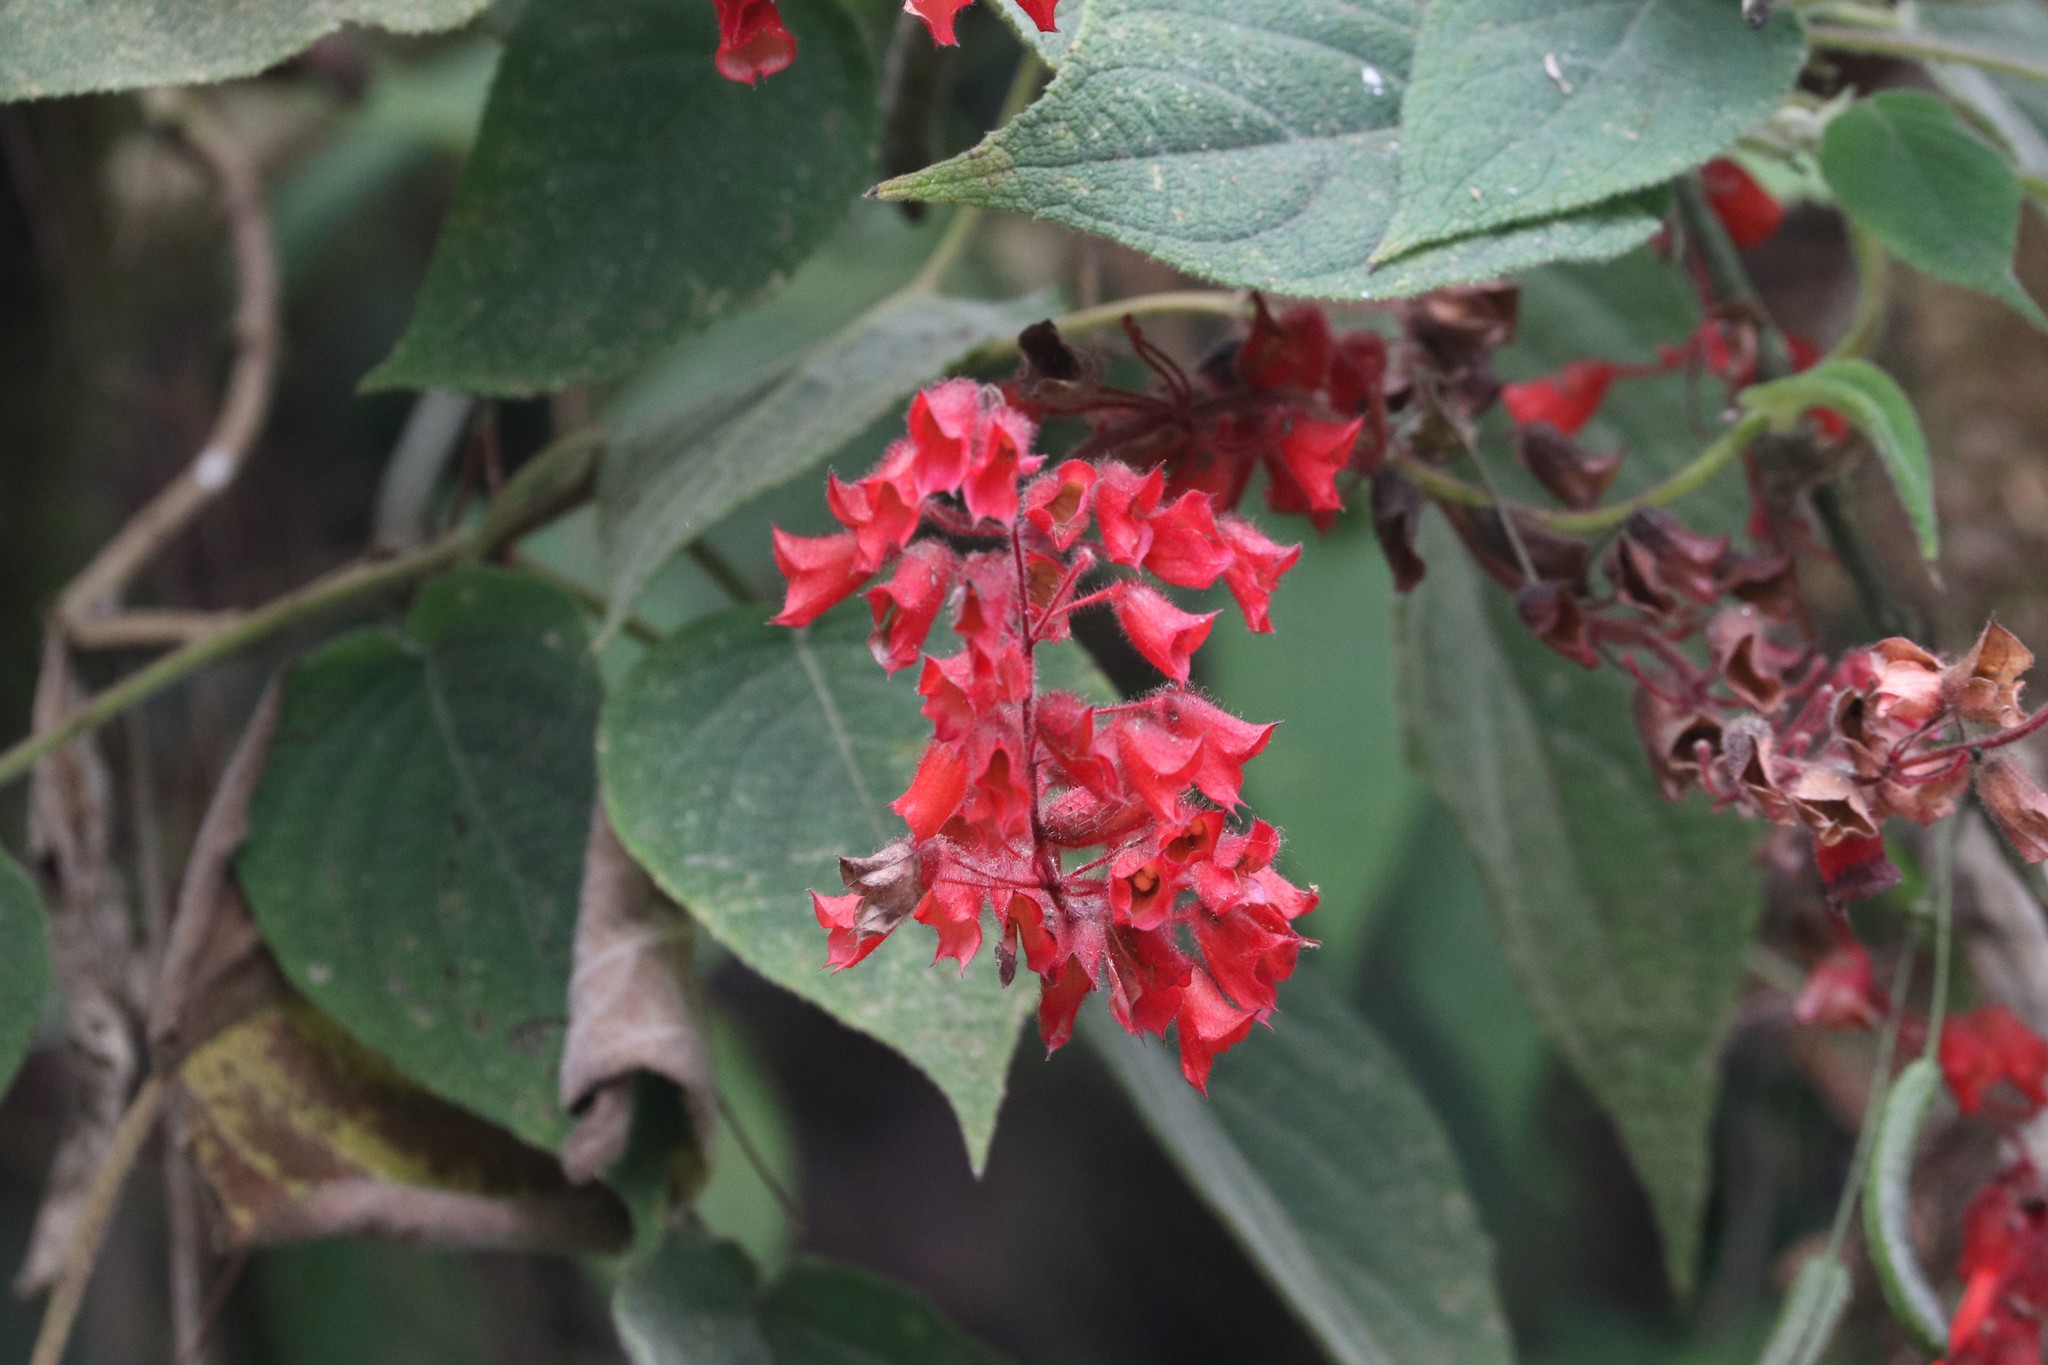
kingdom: Plantae
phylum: Tracheophyta
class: Magnoliopsida
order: Lamiales
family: Lamiaceae
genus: Salvia
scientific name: Salvia libanensis
